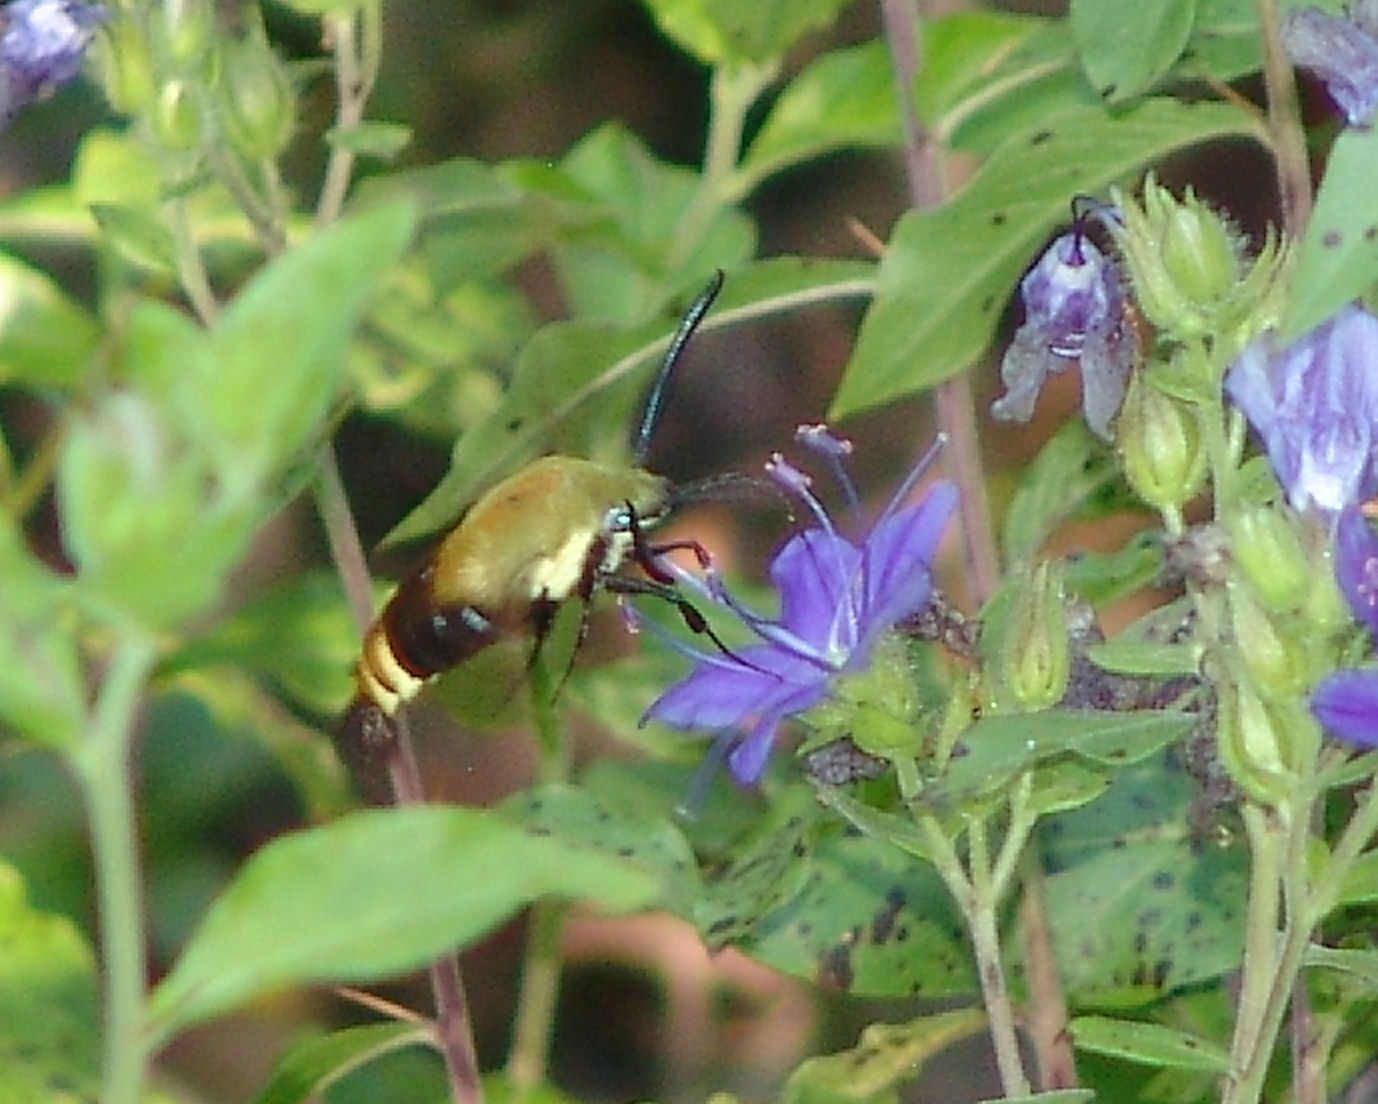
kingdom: Animalia
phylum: Arthropoda
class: Insecta
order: Lepidoptera
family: Sphingidae
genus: Hemaris
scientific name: Hemaris diffinis
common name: Bumblebee moth
